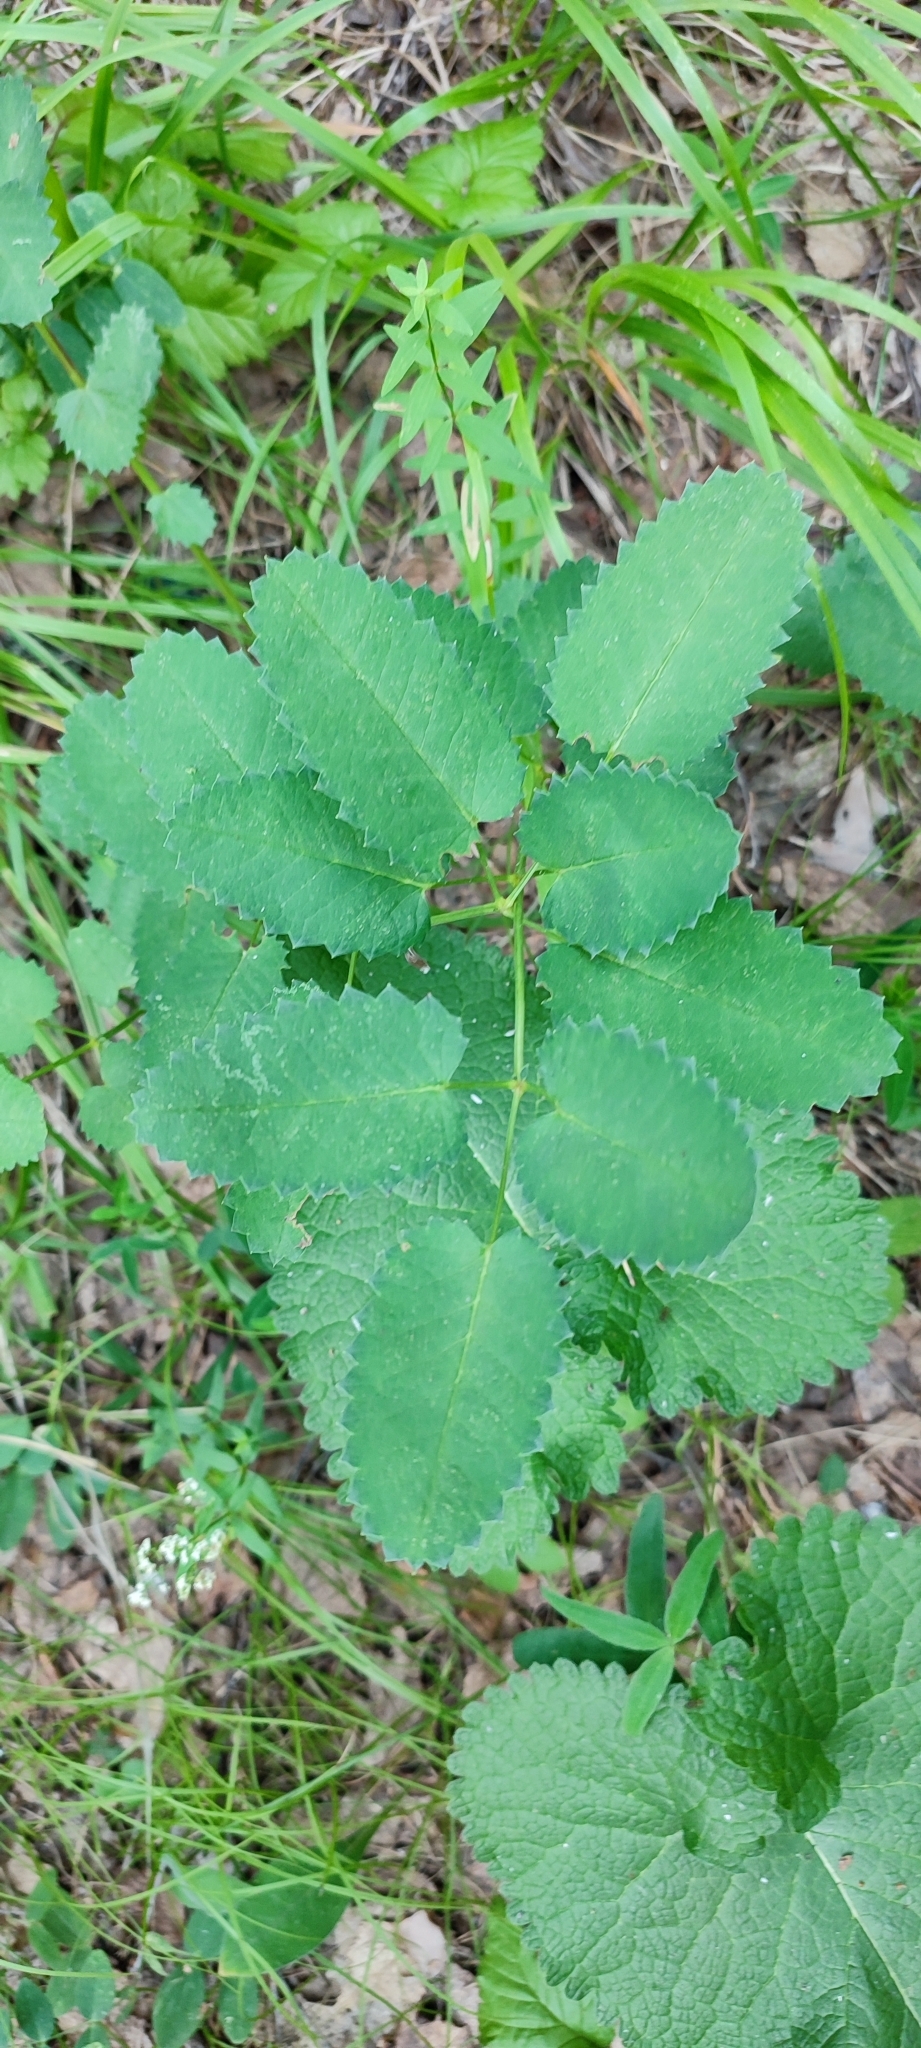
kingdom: Plantae
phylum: Tracheophyta
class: Magnoliopsida
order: Rosales
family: Rosaceae
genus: Sanguisorba
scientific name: Sanguisorba officinalis
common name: Great burnet
